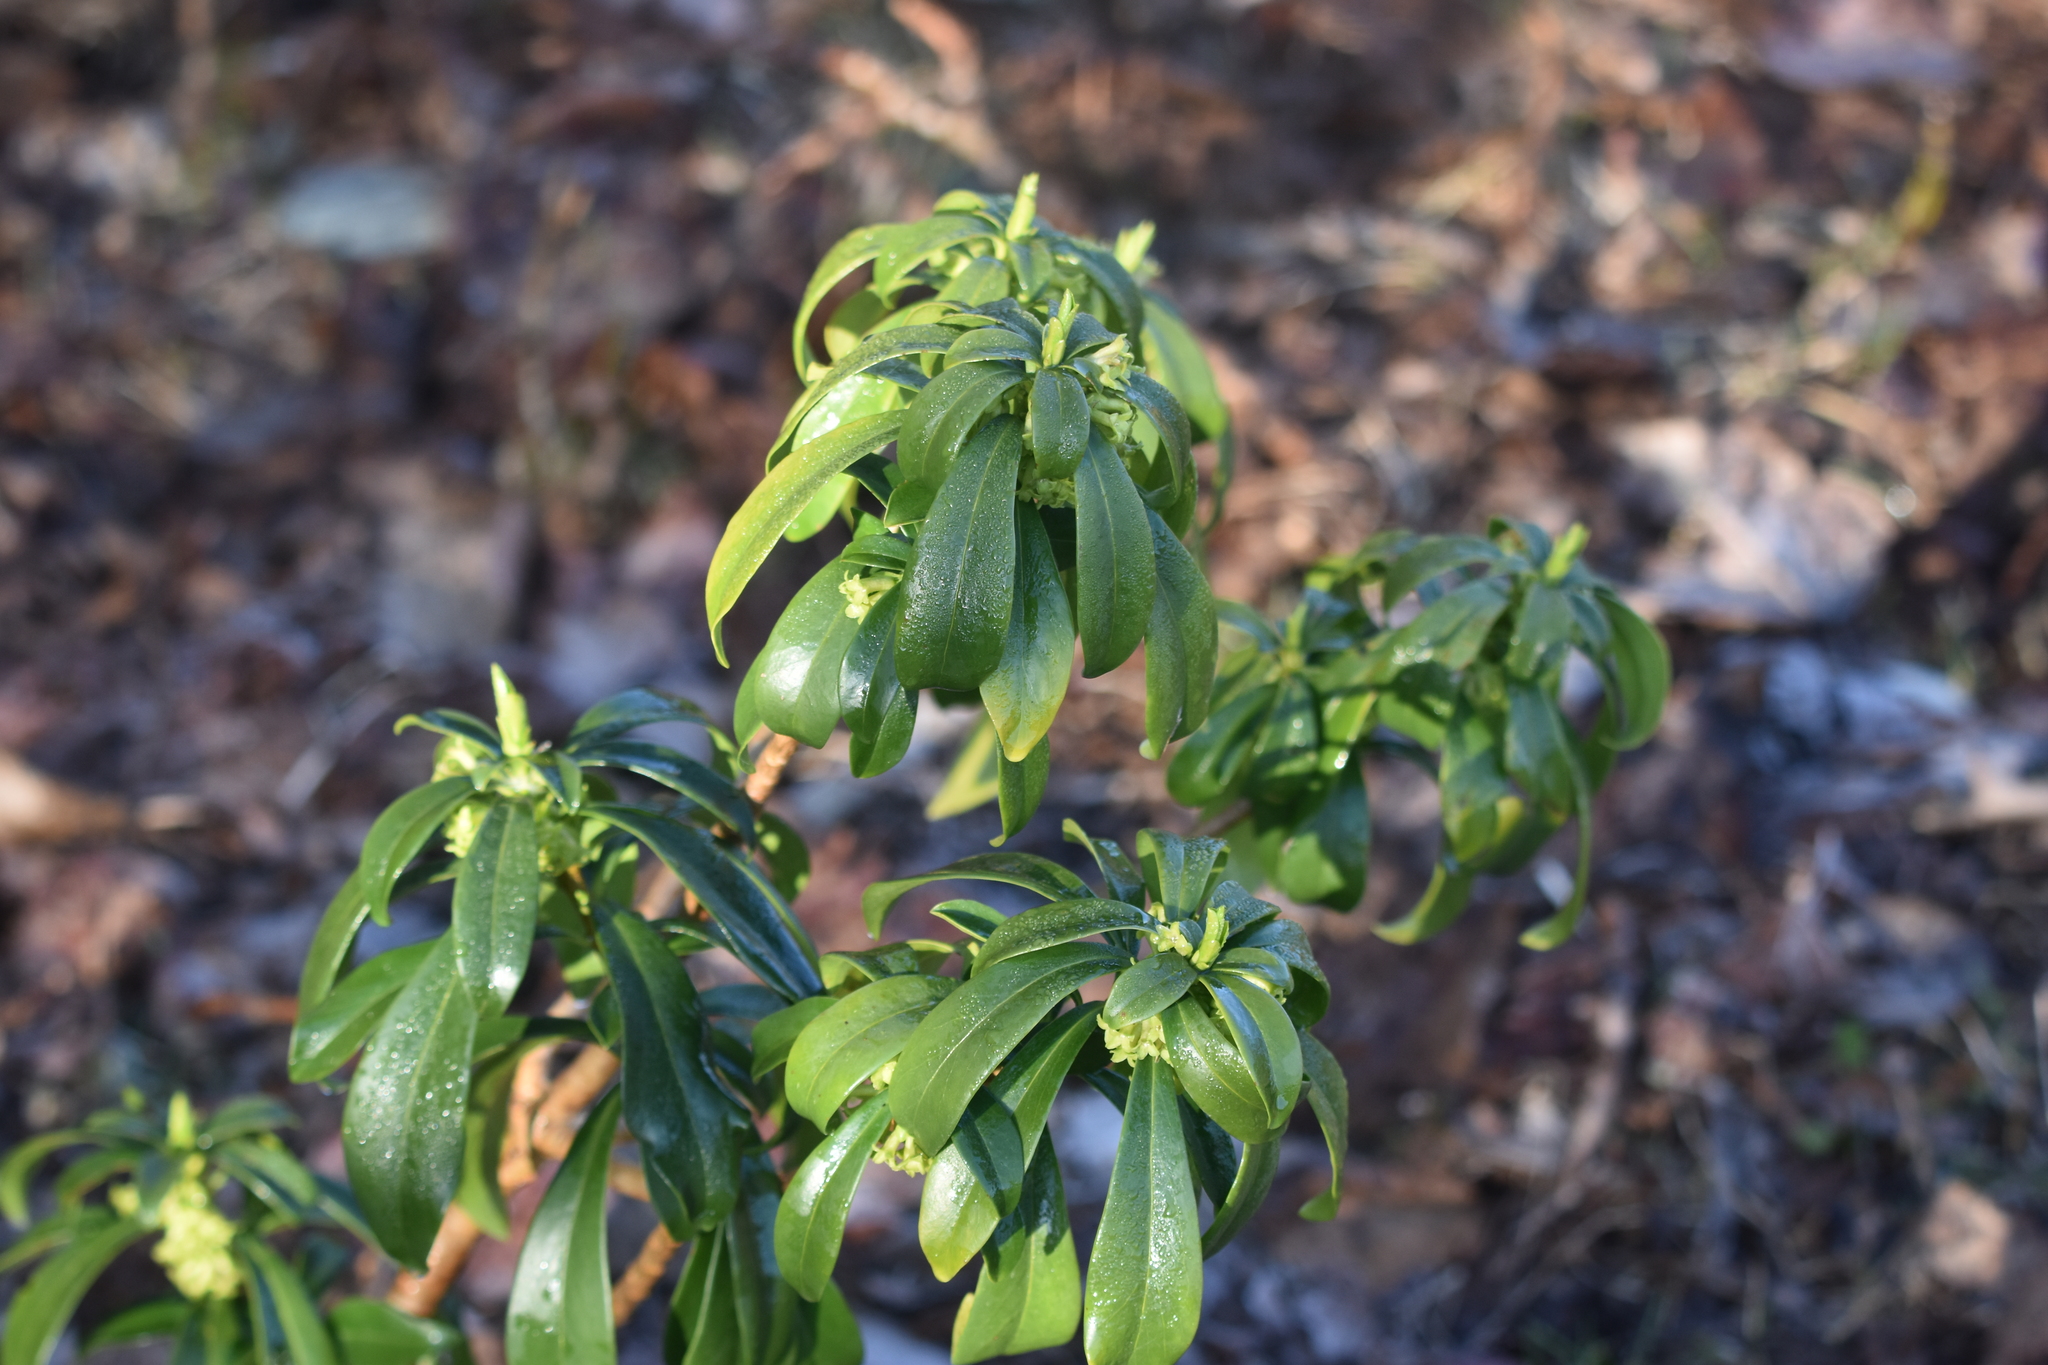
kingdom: Plantae
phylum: Tracheophyta
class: Magnoliopsida
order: Malvales
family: Thymelaeaceae
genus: Daphne
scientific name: Daphne laureola
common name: Spurge-laurel
